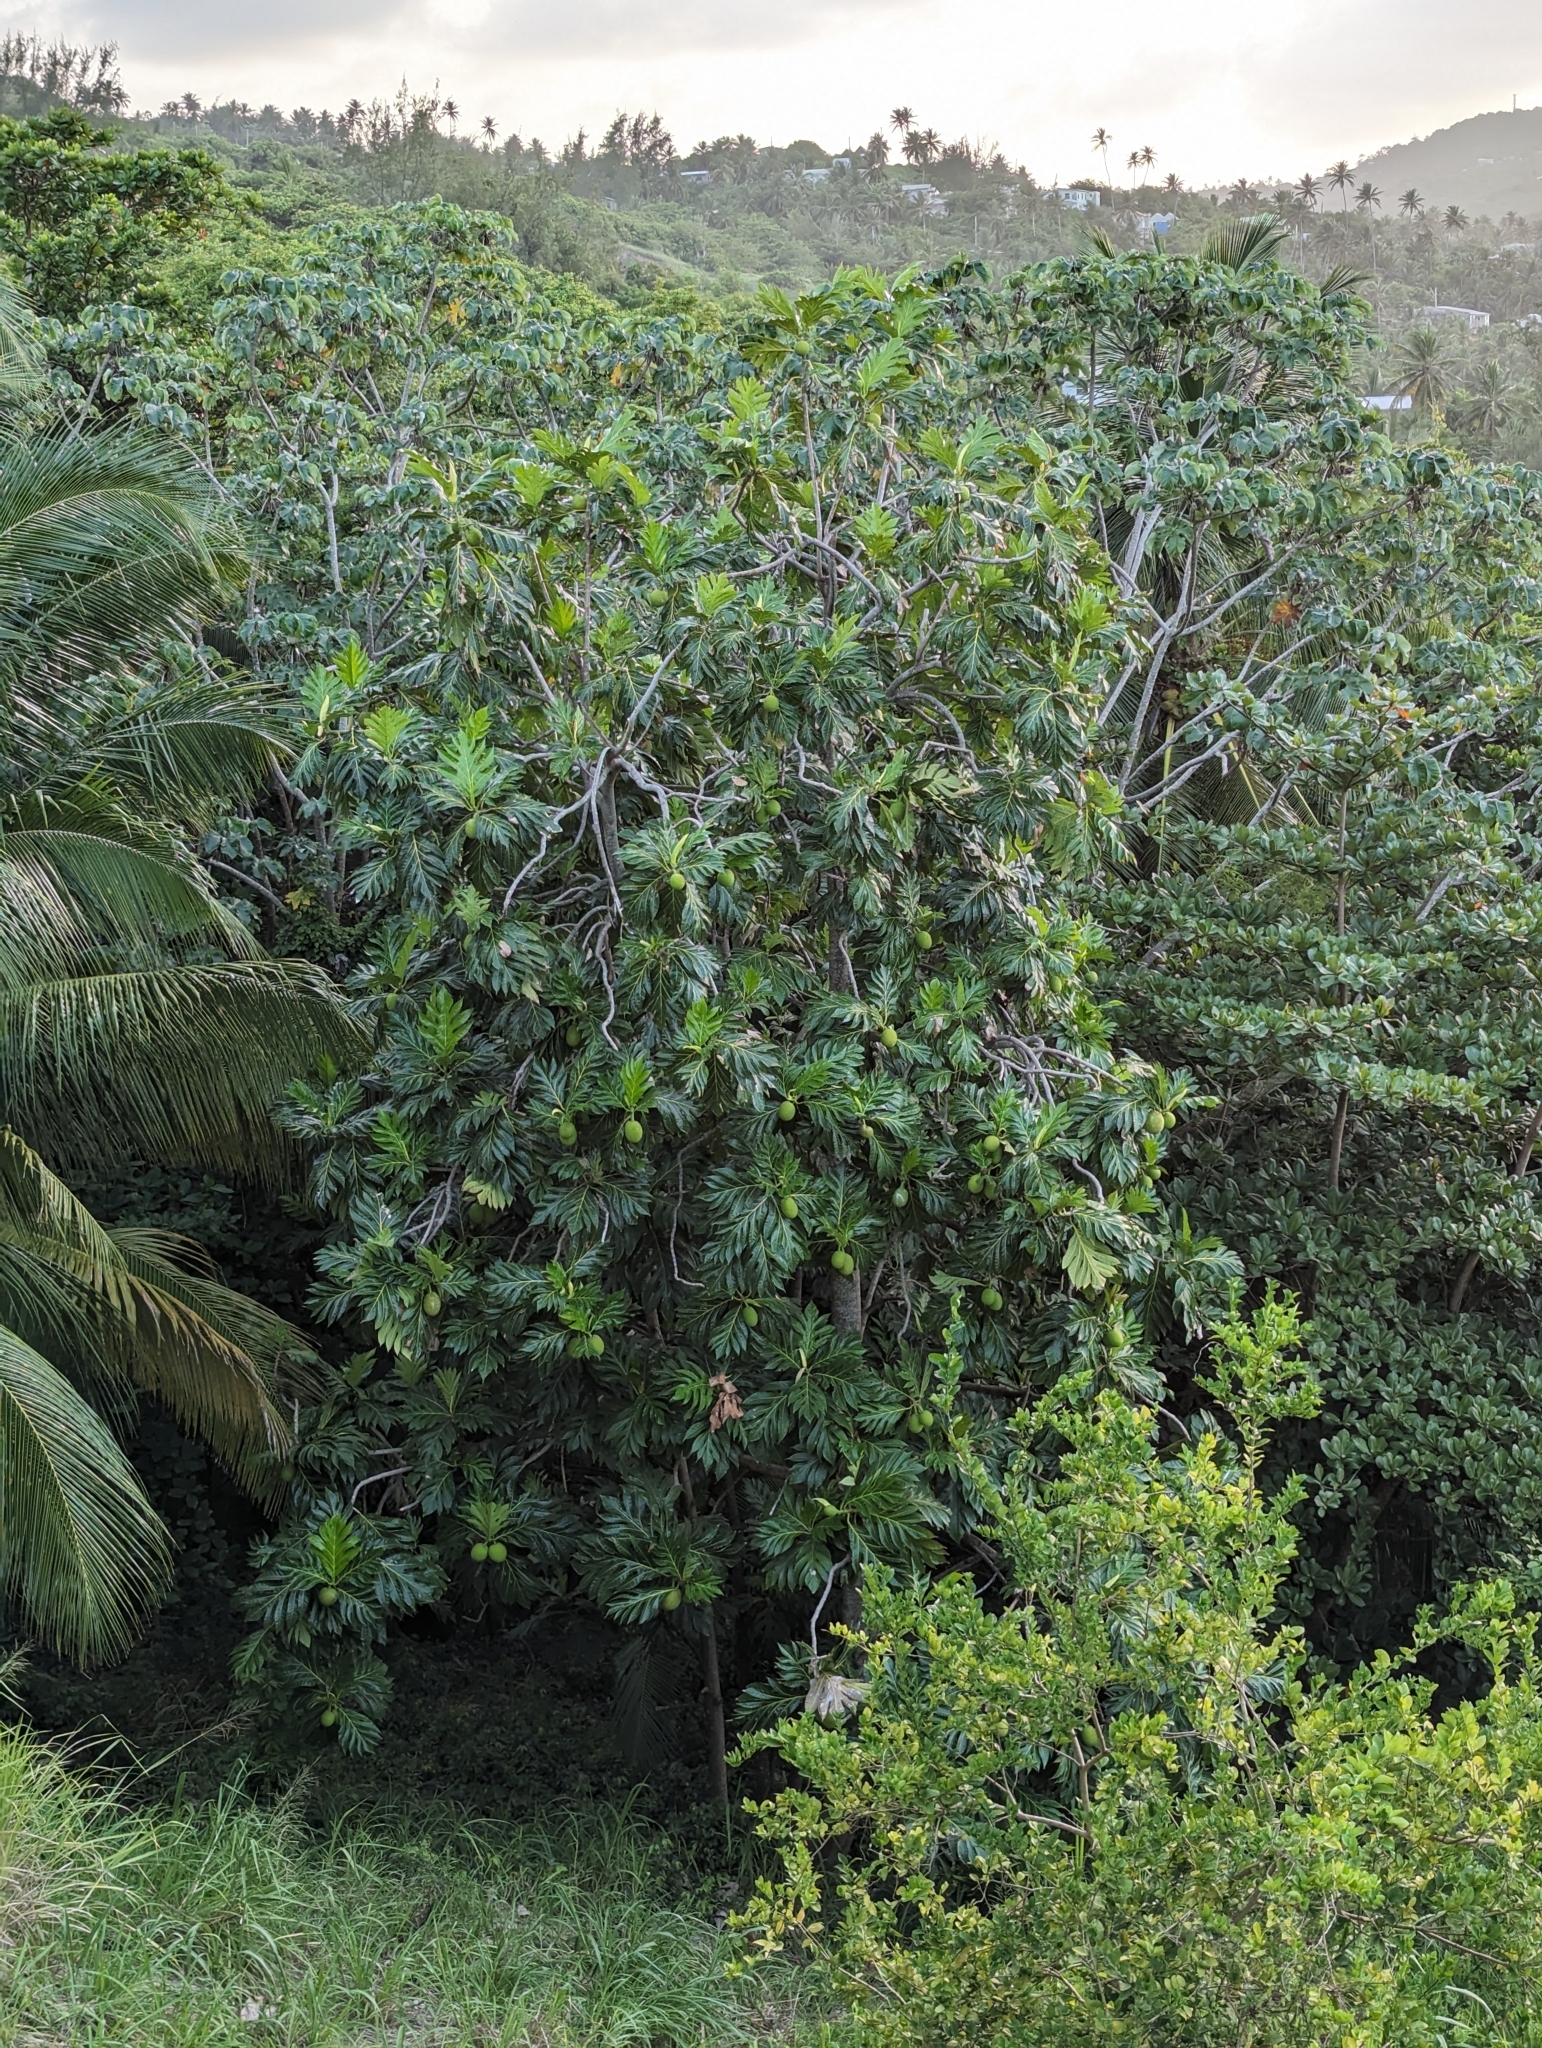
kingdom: Plantae
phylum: Tracheophyta
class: Magnoliopsida
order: Rosales
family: Moraceae
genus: Artocarpus
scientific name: Artocarpus altilis
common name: Breadfruit
